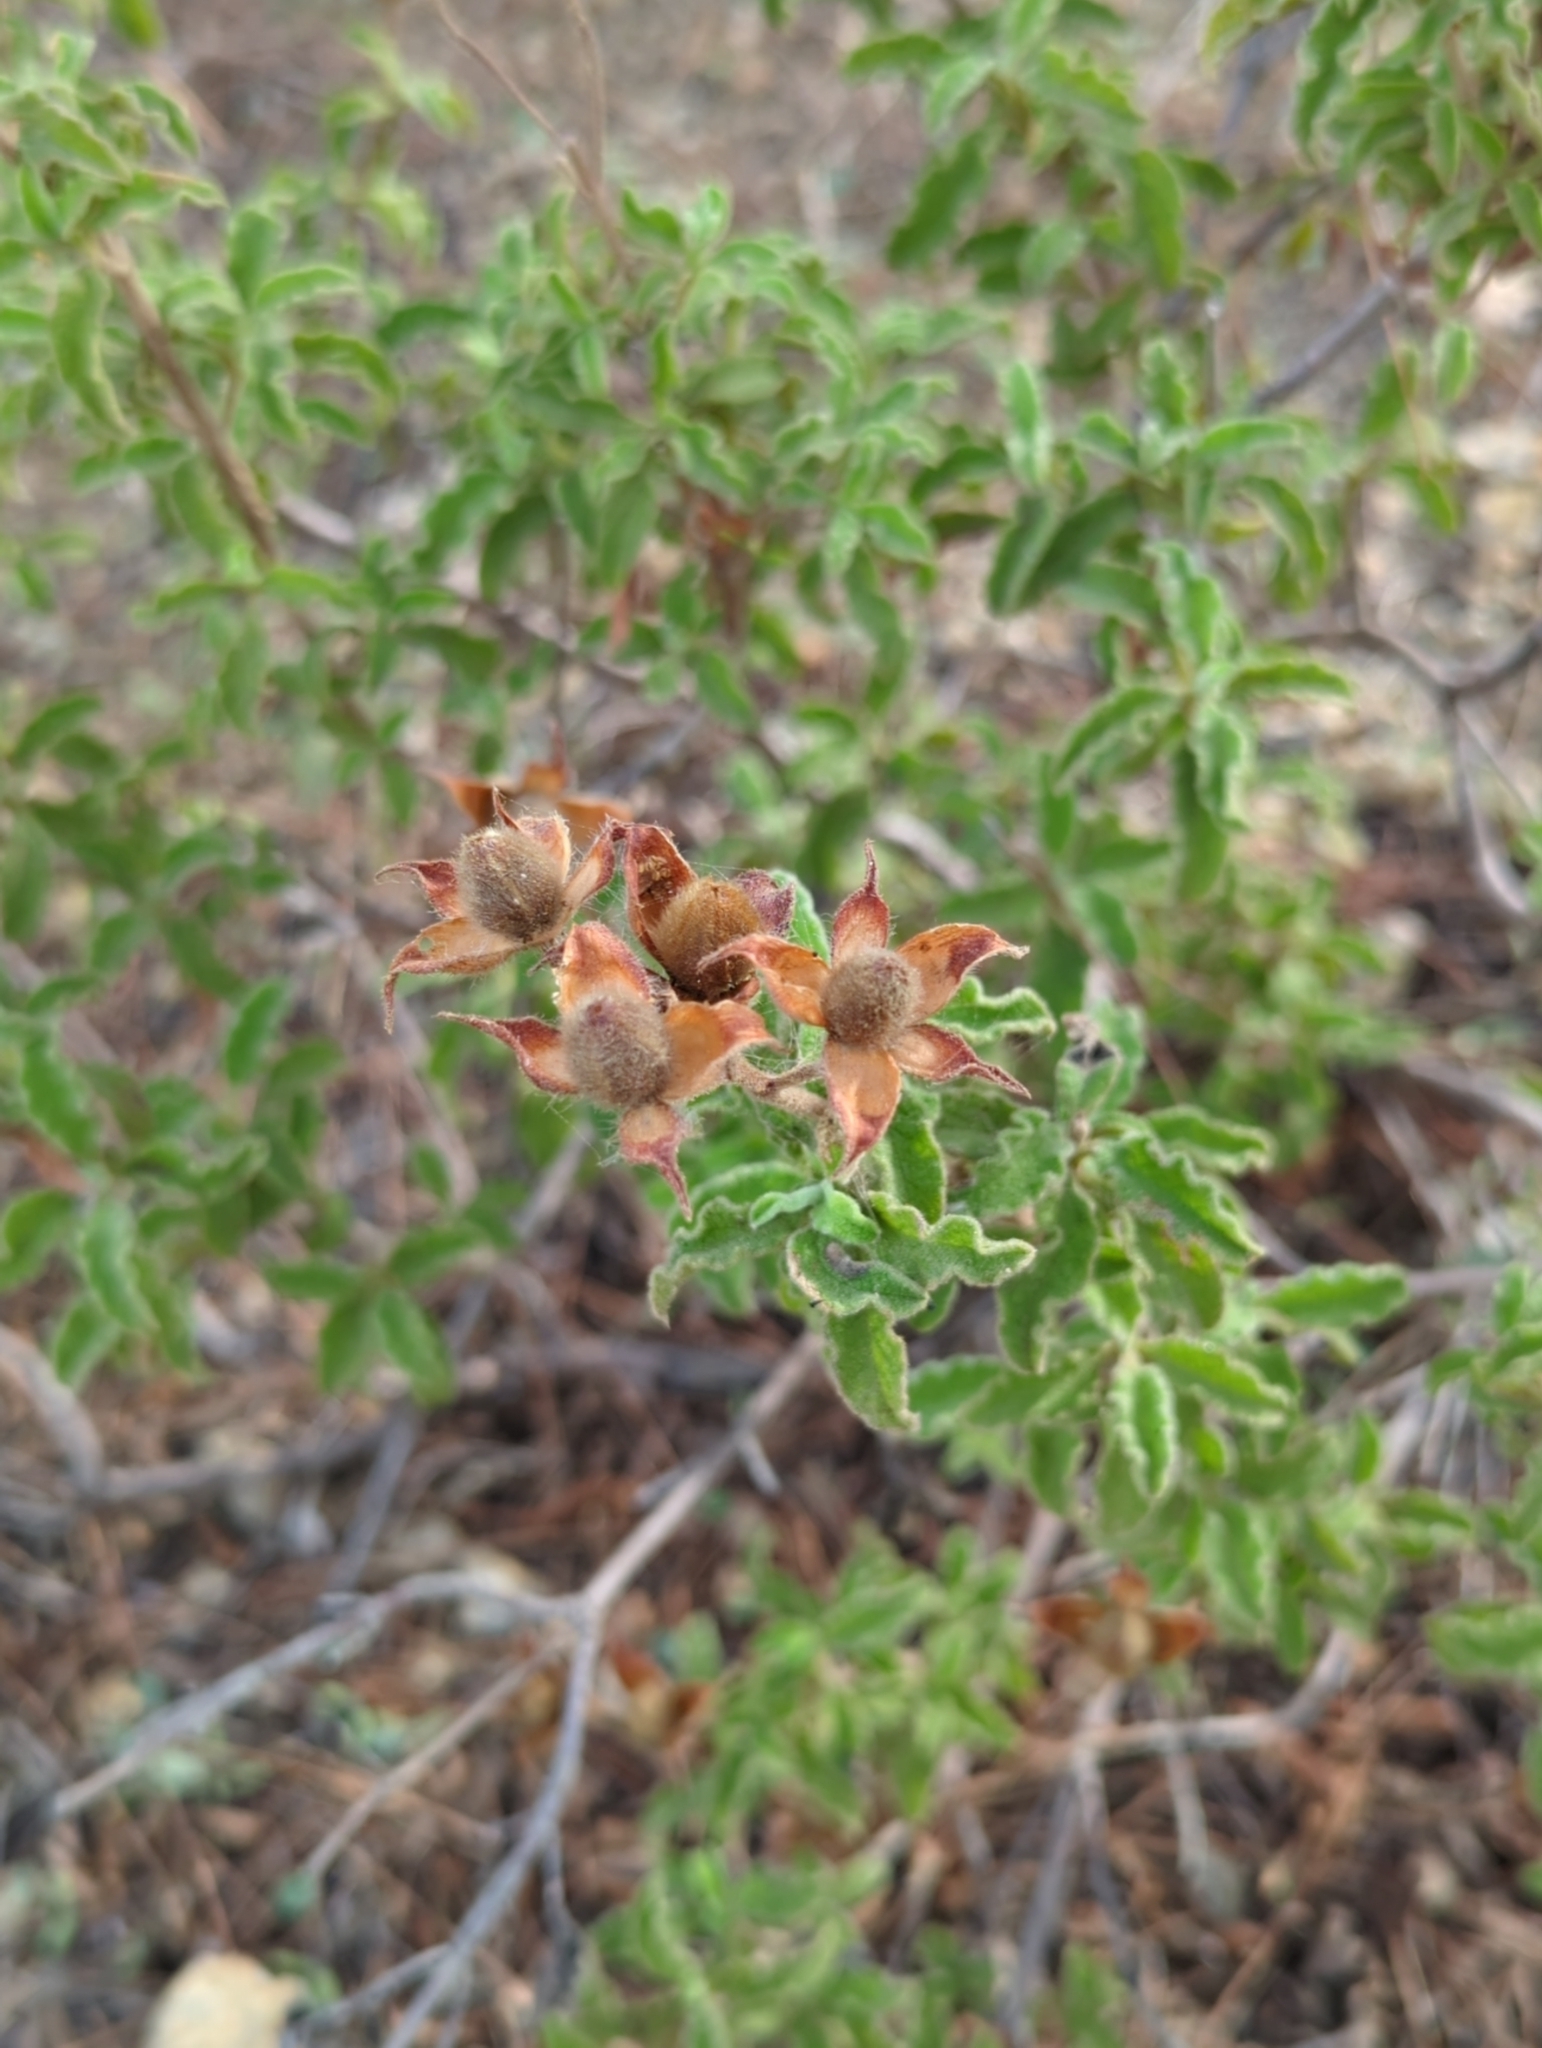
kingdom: Plantae
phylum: Tracheophyta
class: Magnoliopsida
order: Malvales
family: Cistaceae
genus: Cistus
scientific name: Cistus creticus
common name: Cretan rockrose
